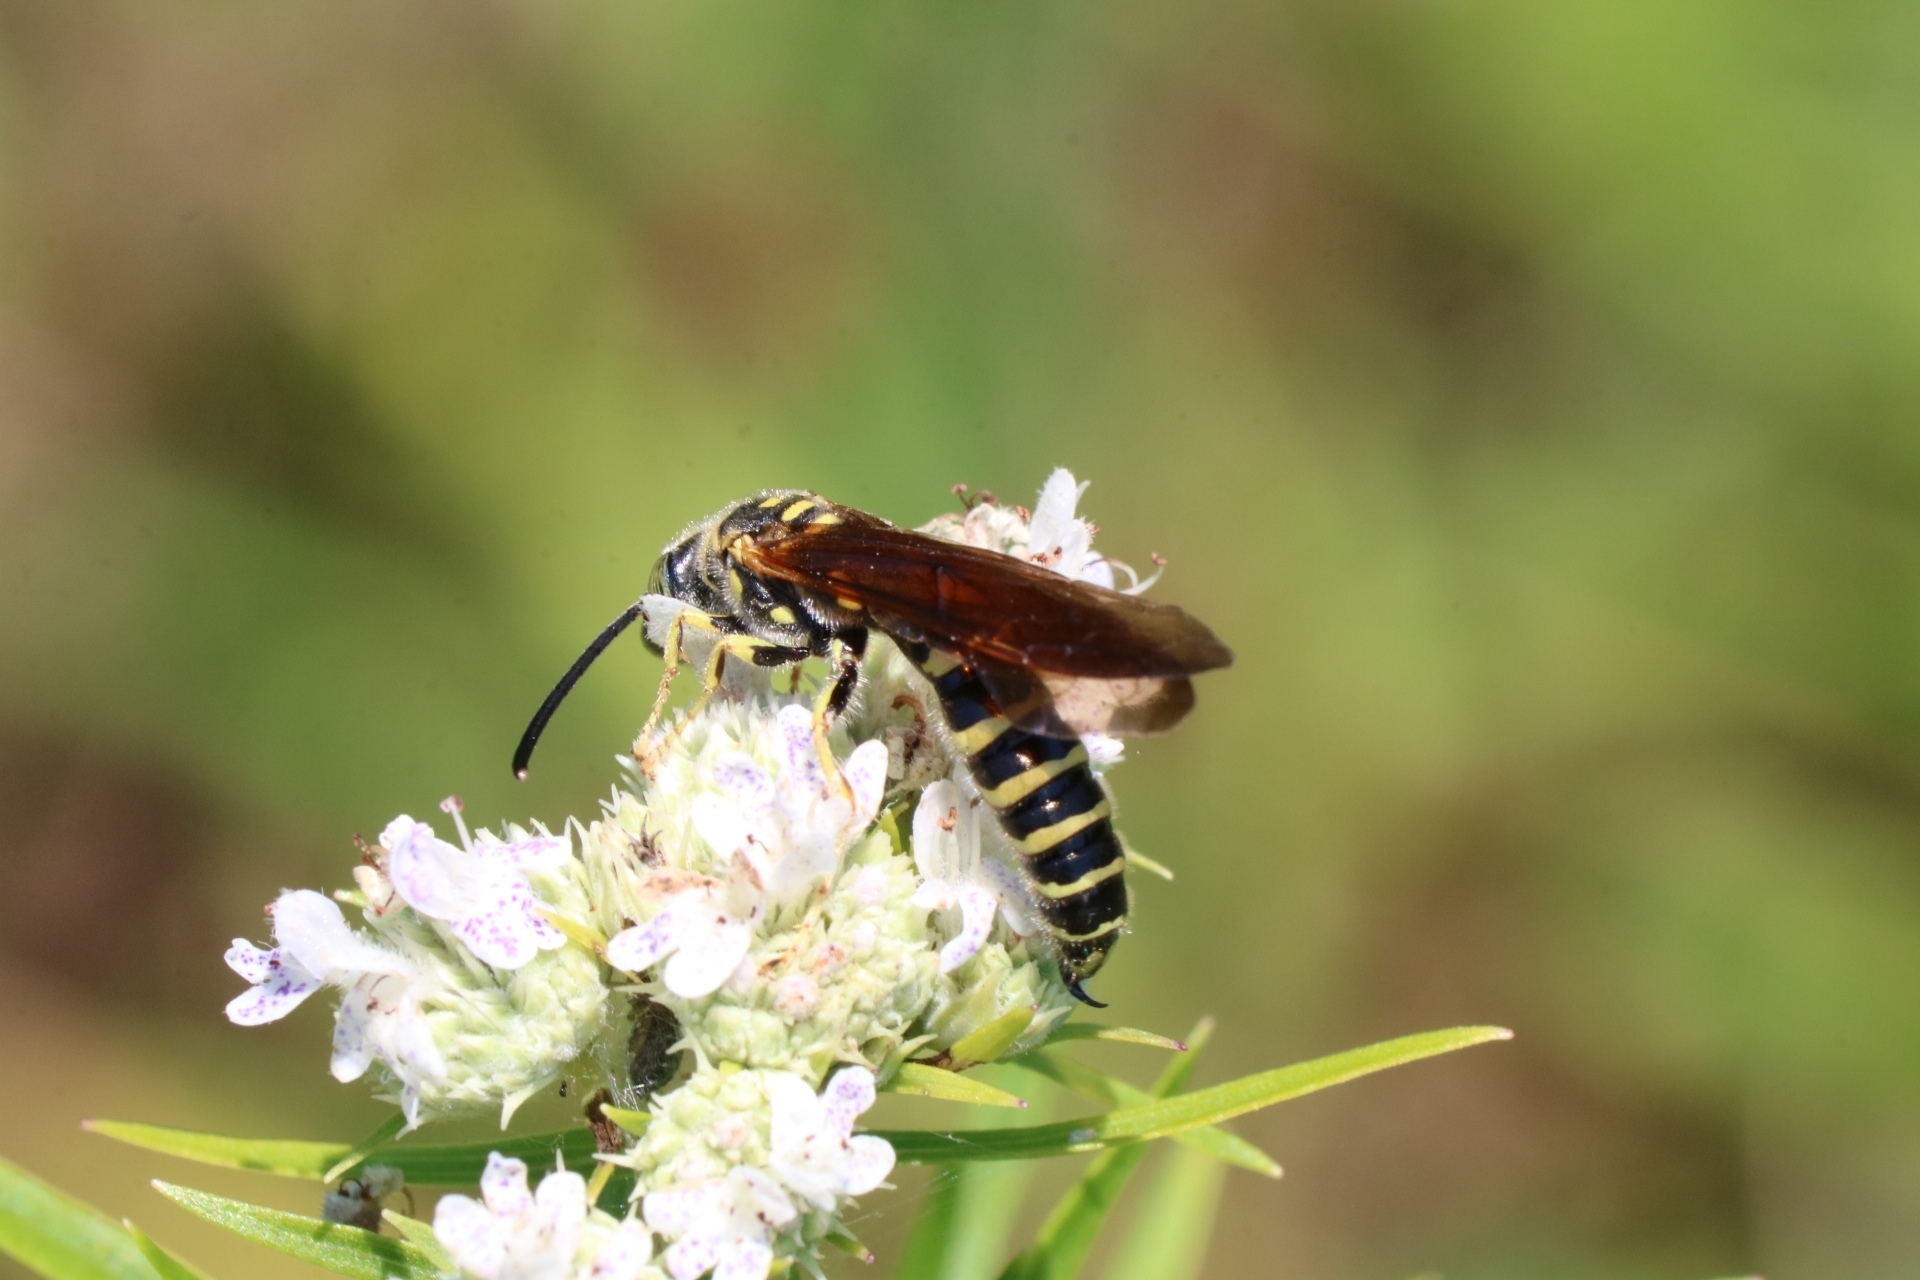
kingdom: Animalia
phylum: Arthropoda
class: Insecta
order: Hymenoptera
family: Tiphiidae
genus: Myzinum
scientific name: Myzinum quinquecinctum
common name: Five-banded thynnid wasp
